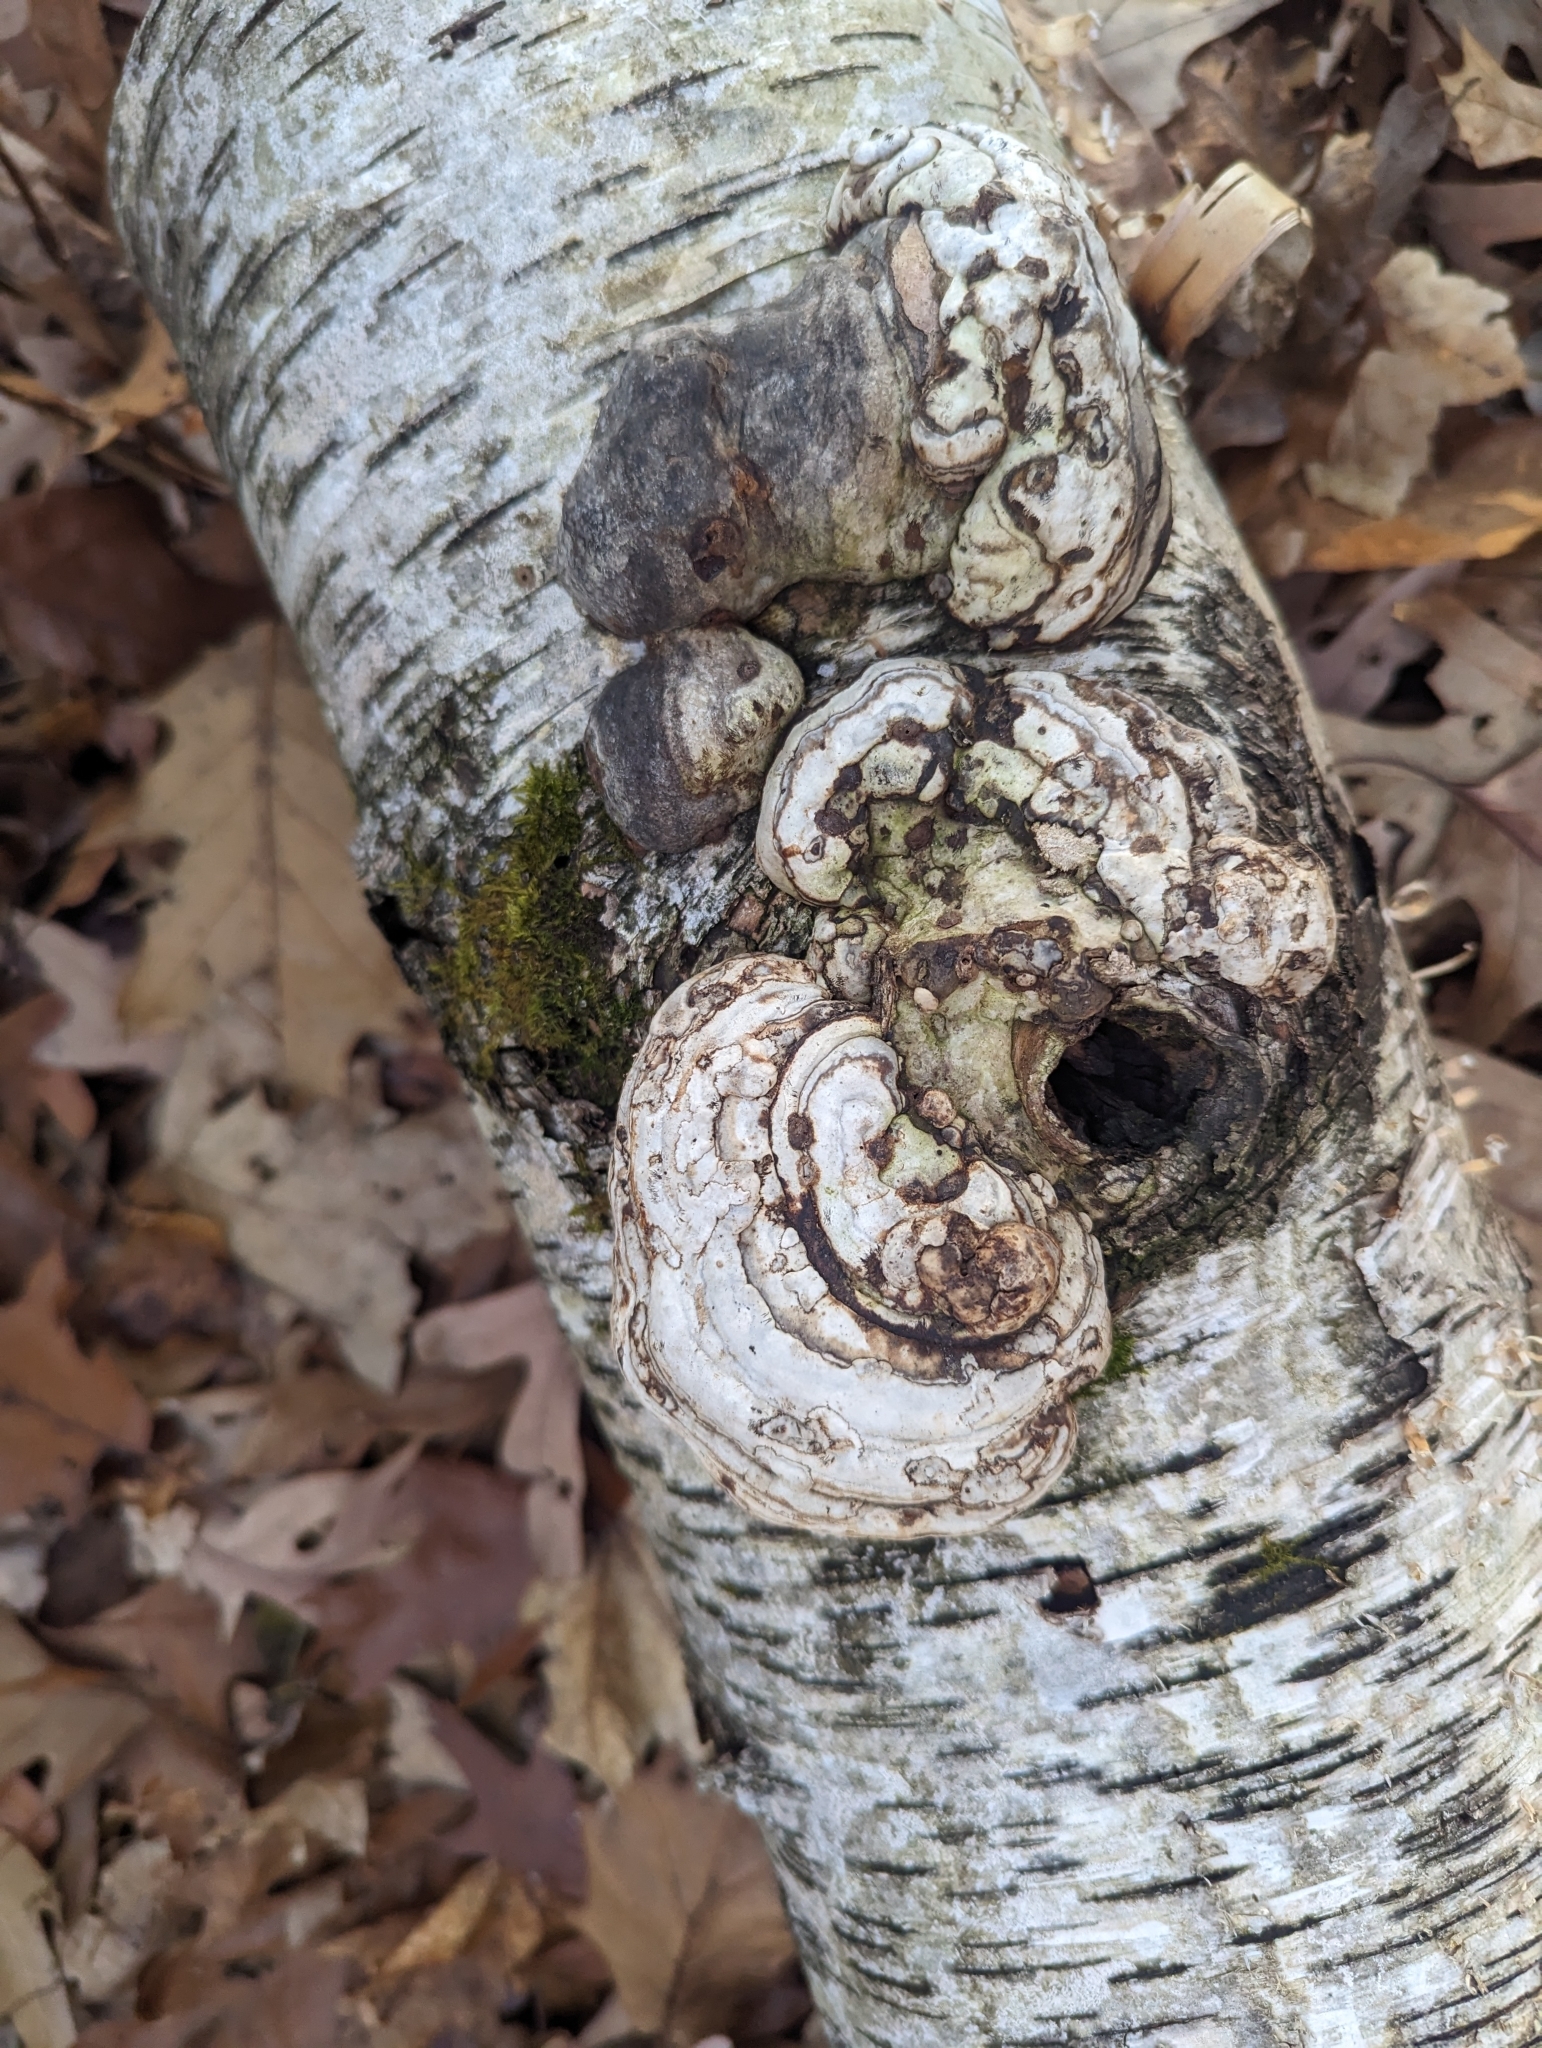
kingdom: Fungi
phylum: Basidiomycota
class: Agaricomycetes
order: Polyporales
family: Polyporaceae
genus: Fomes
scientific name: Fomes fomentarius
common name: Hoof fungus
